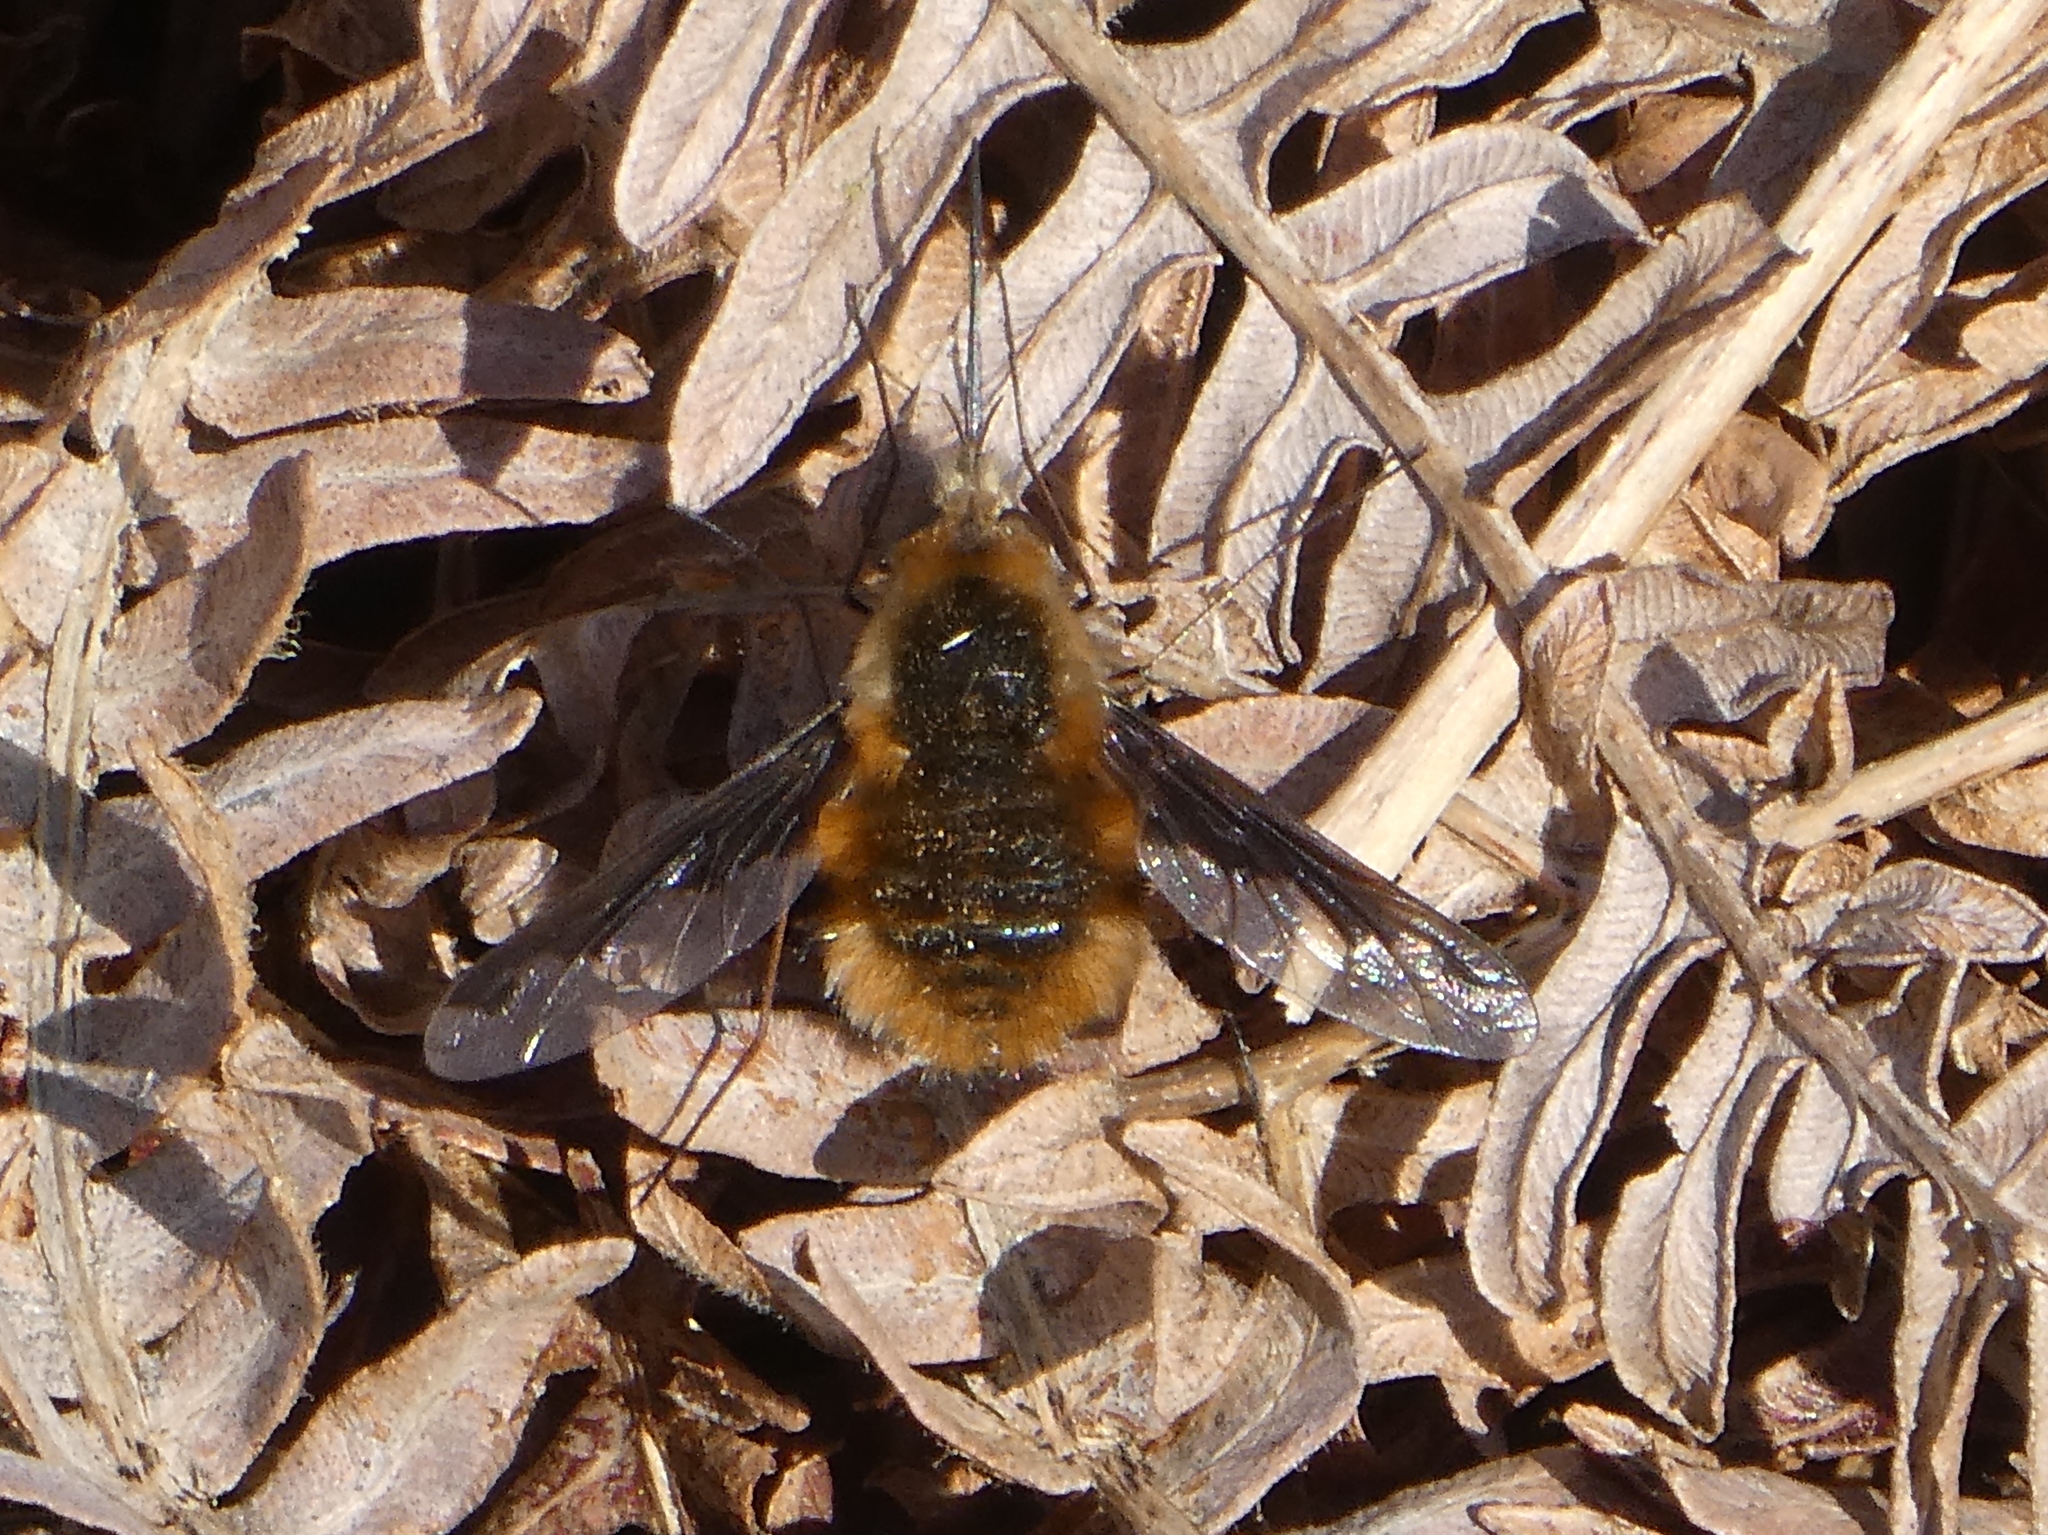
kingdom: Animalia
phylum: Arthropoda
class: Insecta
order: Diptera
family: Bombyliidae
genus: Bombylius
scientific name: Bombylius major
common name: Bee fly
